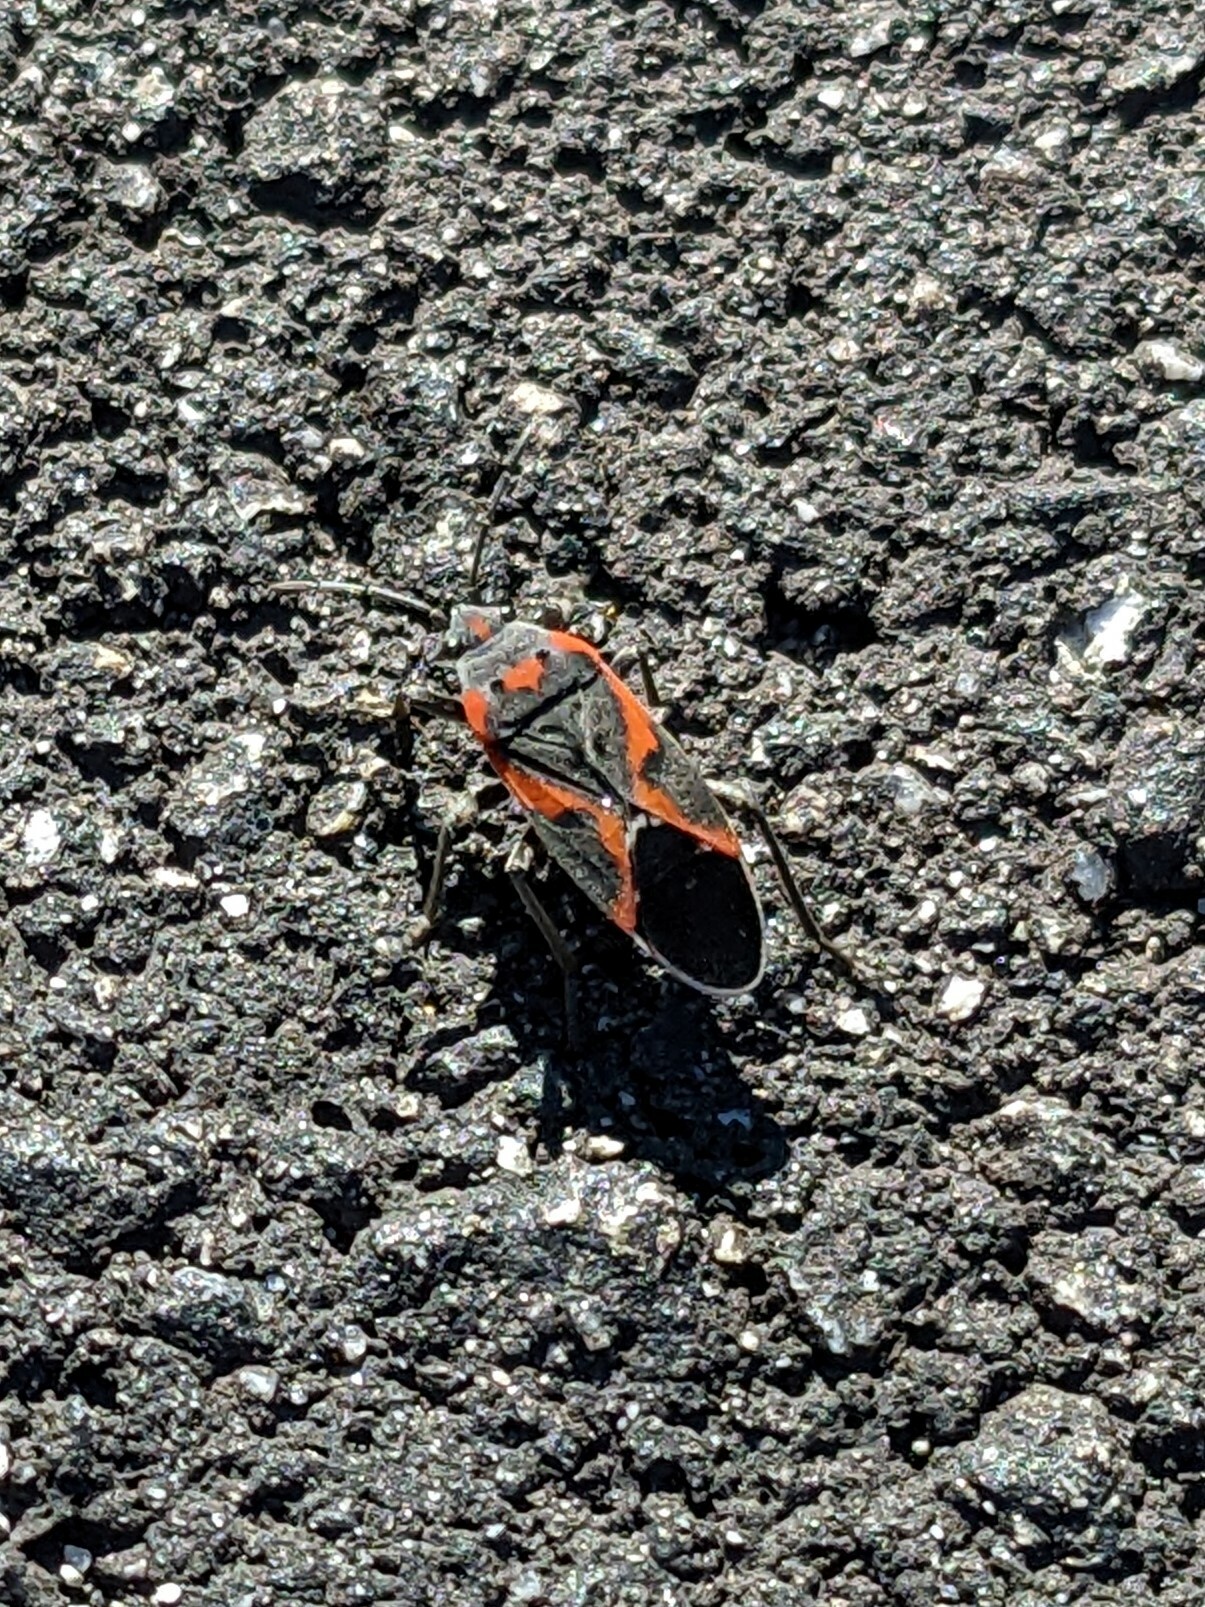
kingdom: Animalia
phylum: Arthropoda
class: Insecta
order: Hemiptera
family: Lygaeidae
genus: Lygaeus
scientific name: Lygaeus kalmii
